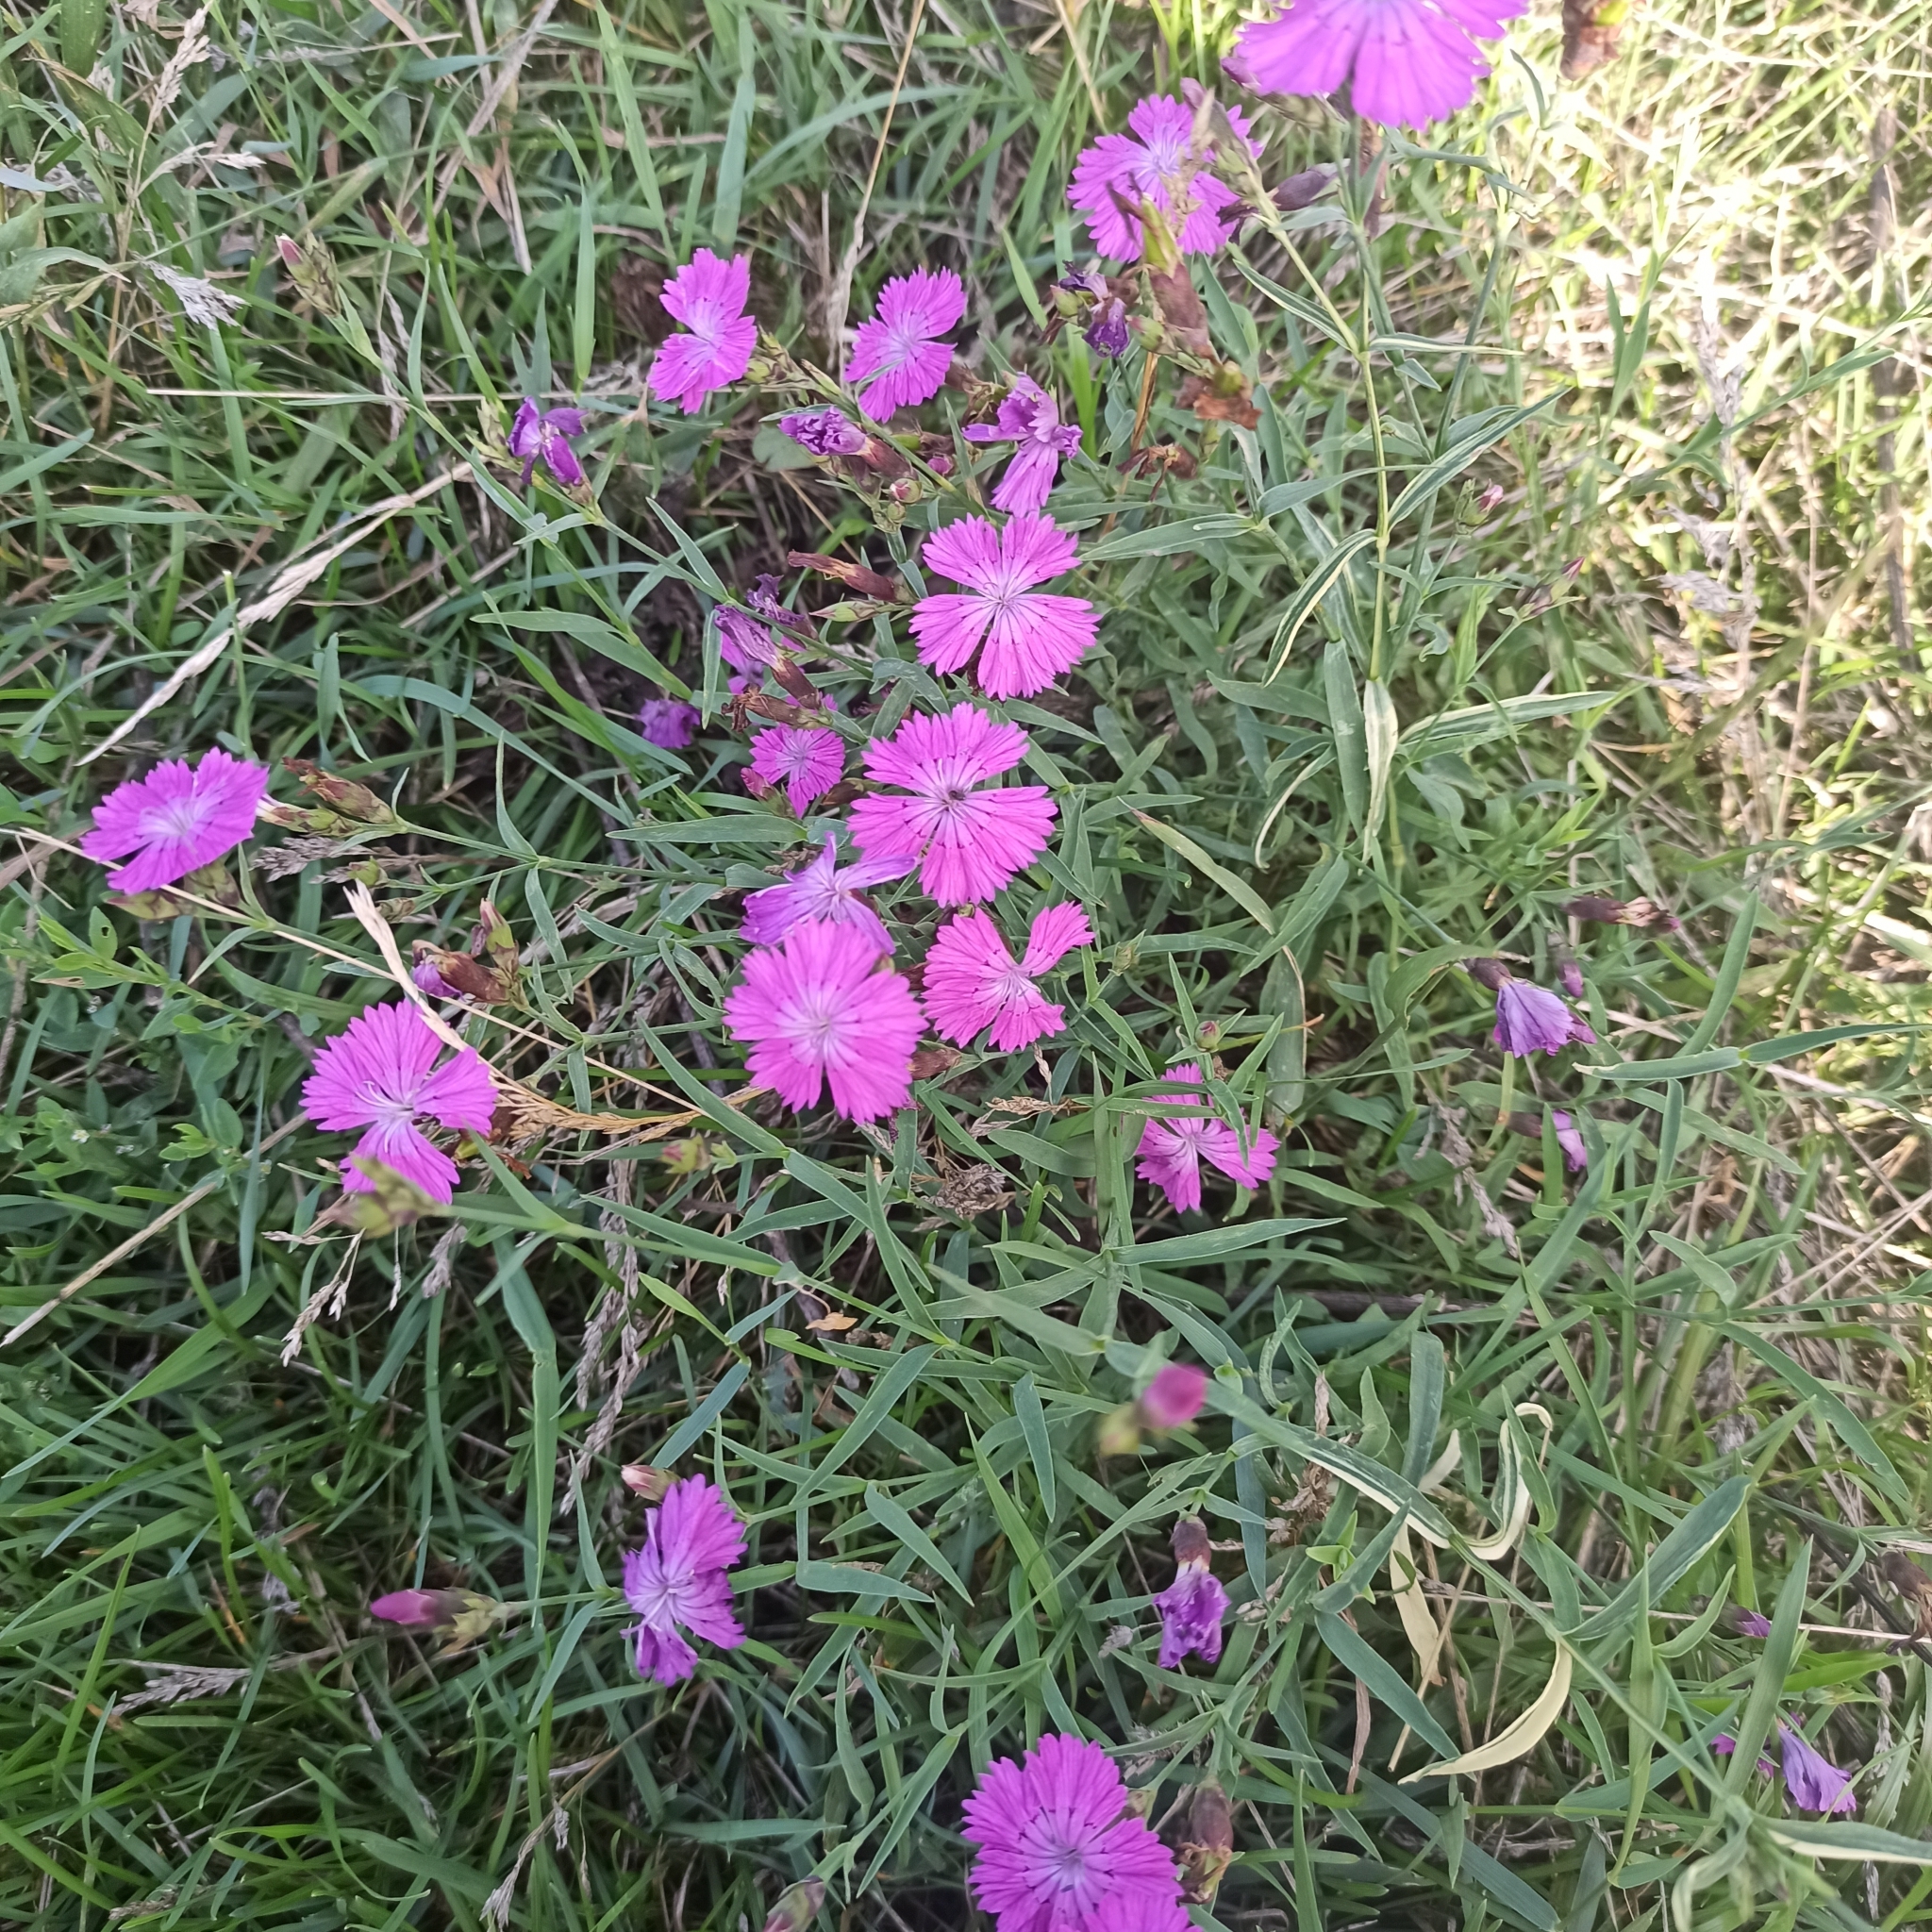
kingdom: Plantae
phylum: Tracheophyta
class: Magnoliopsida
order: Caryophyllales
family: Caryophyllaceae
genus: Dianthus
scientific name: Dianthus chinensis
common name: Rainbow pink
